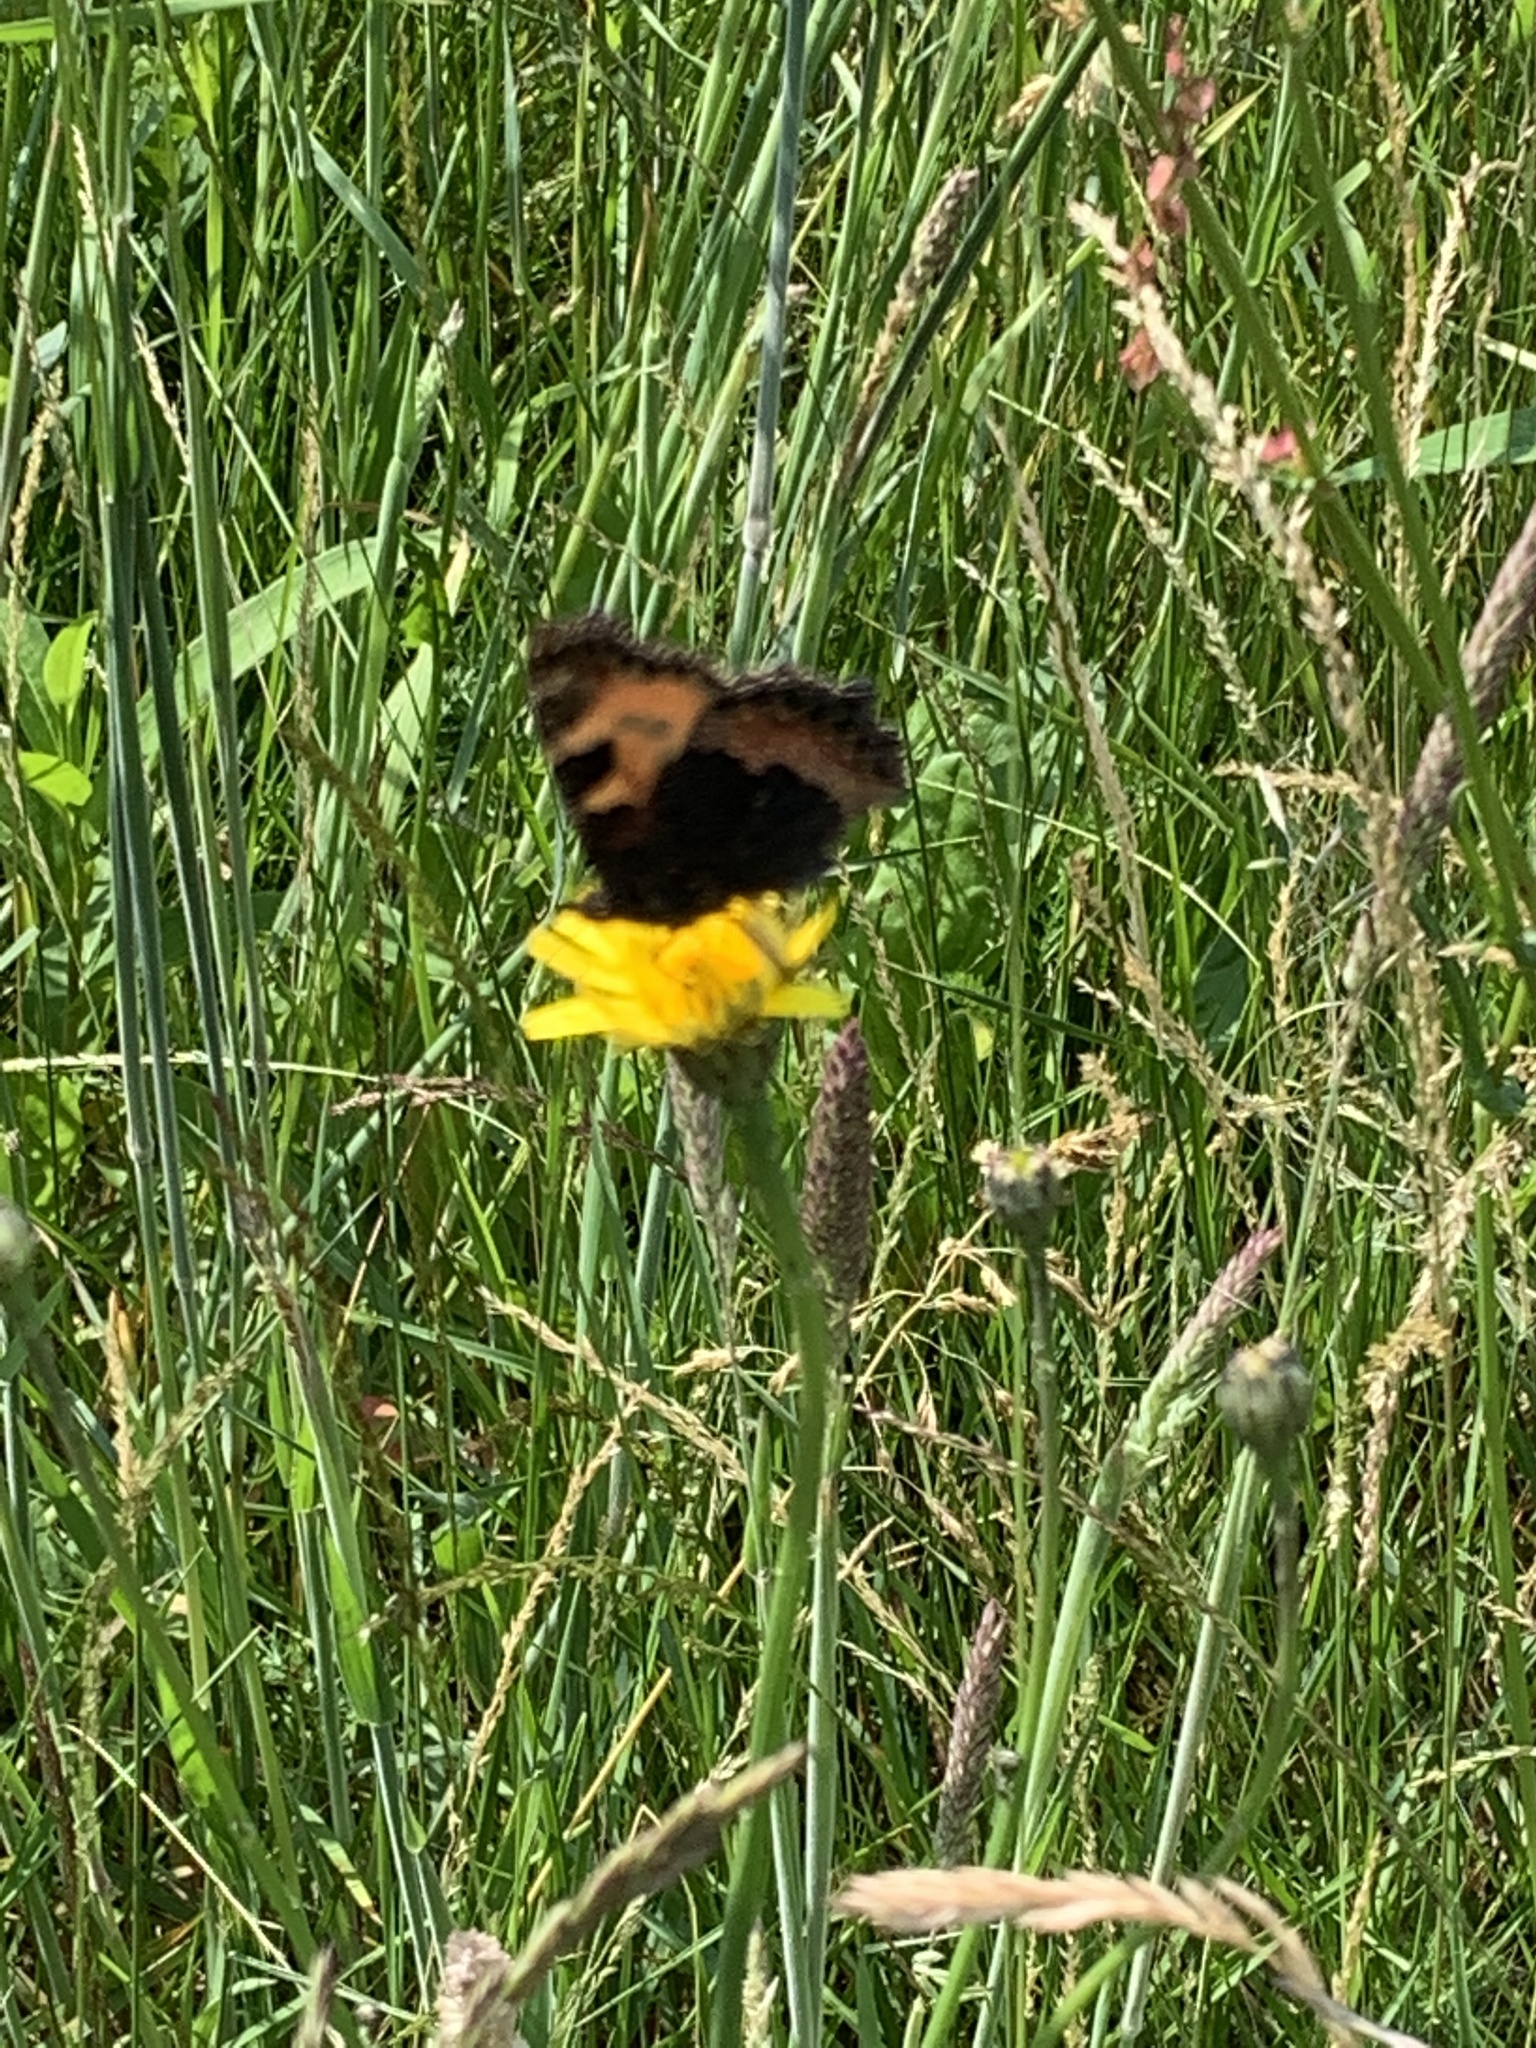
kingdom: Animalia
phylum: Arthropoda
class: Insecta
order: Lepidoptera
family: Nymphalidae
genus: Aglais
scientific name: Aglais urticae
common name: Small tortoiseshell
